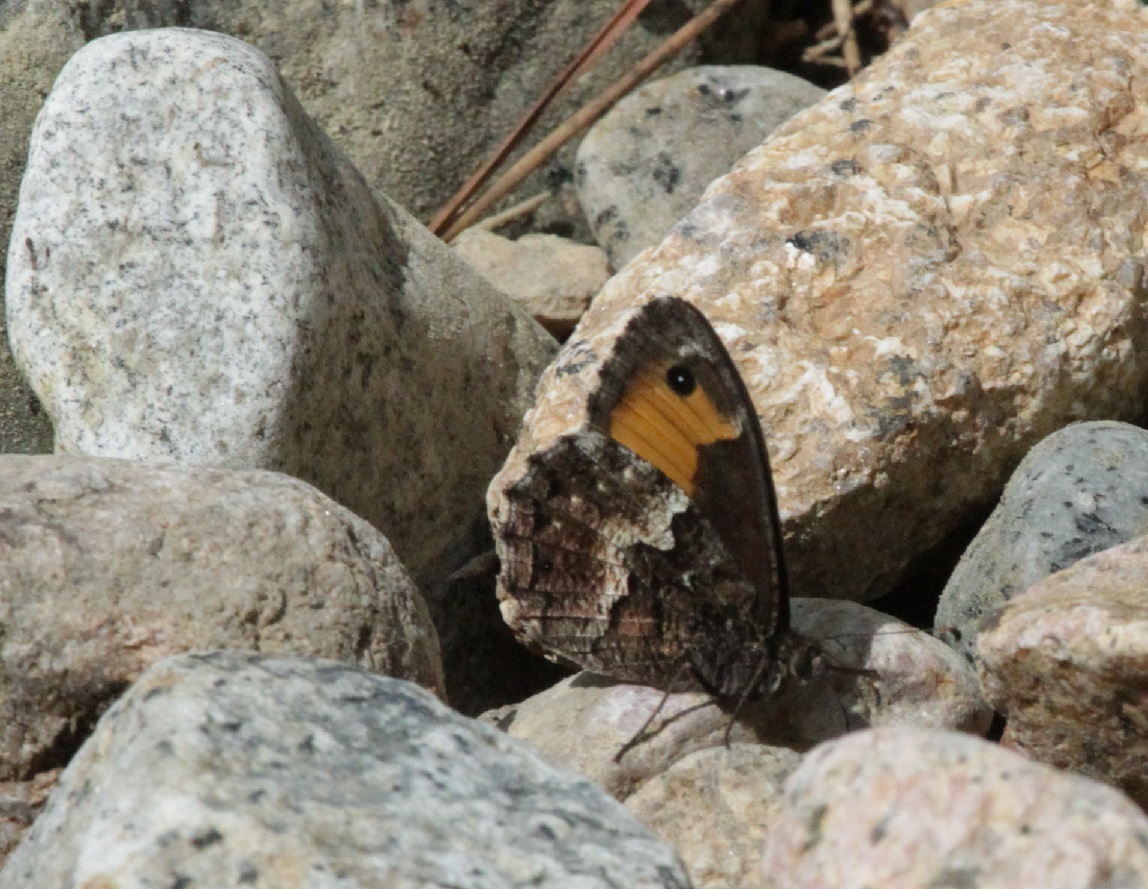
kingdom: Animalia
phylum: Arthropoda
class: Insecta
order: Lepidoptera
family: Nymphalidae
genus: Hipparchia
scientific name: Hipparchia neomiris
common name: Corsican grayling
